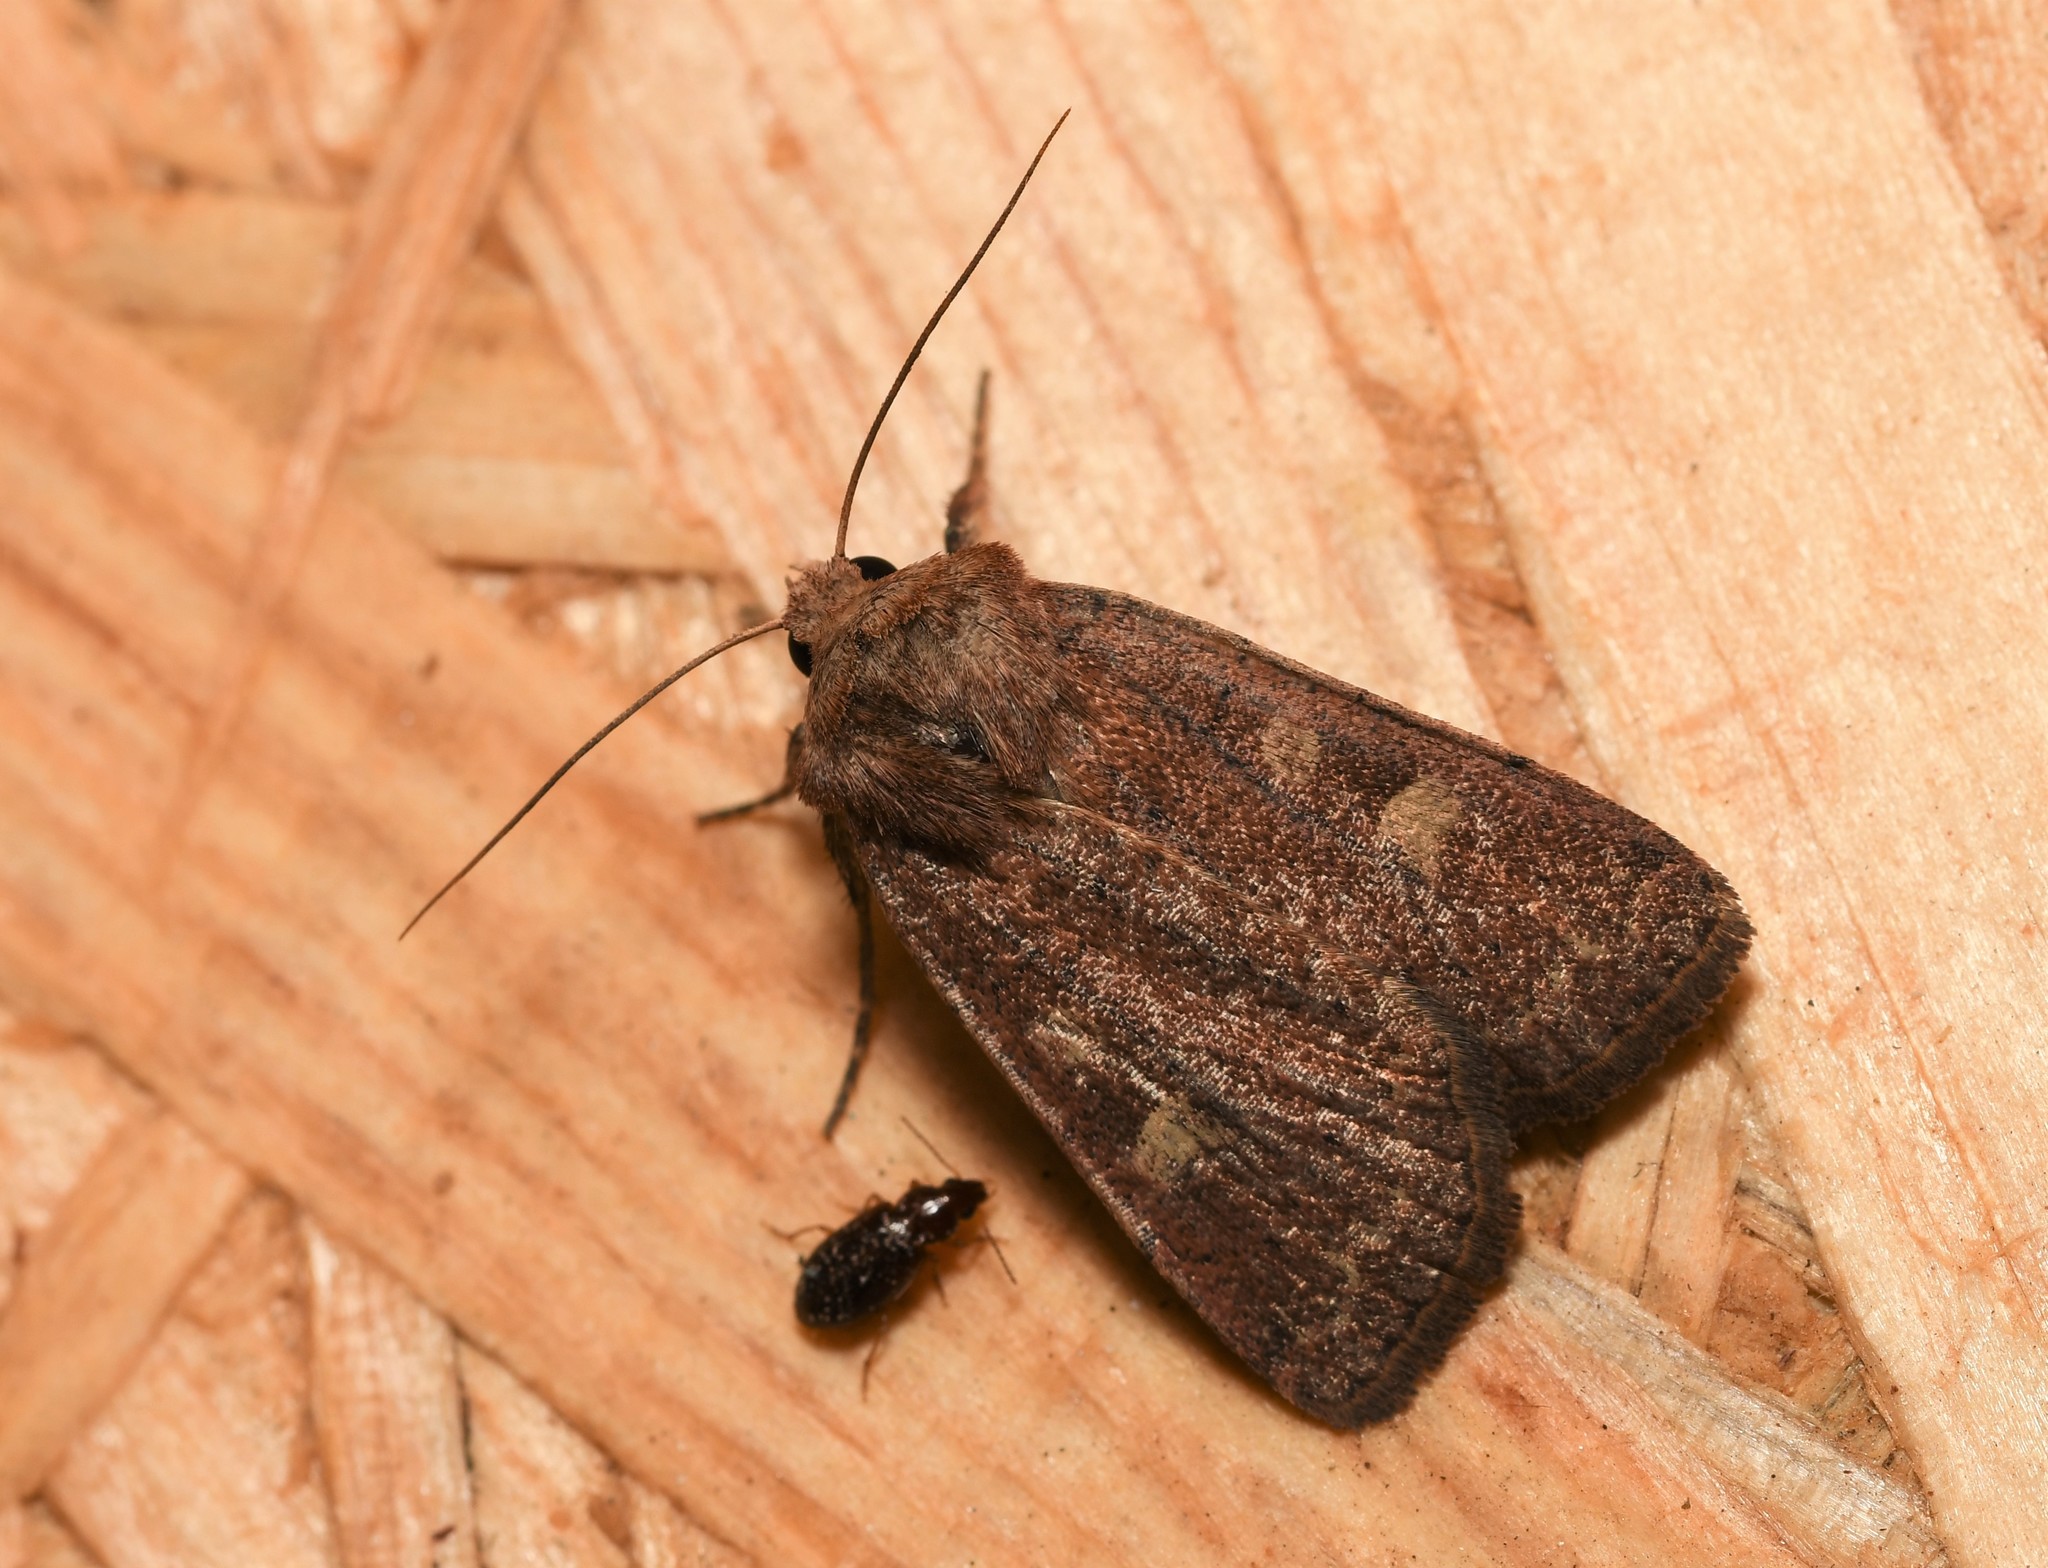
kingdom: Animalia
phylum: Arthropoda
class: Insecta
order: Lepidoptera
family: Noctuidae
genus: Xestia
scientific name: Xestia xanthographa
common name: Square-spot rustic
